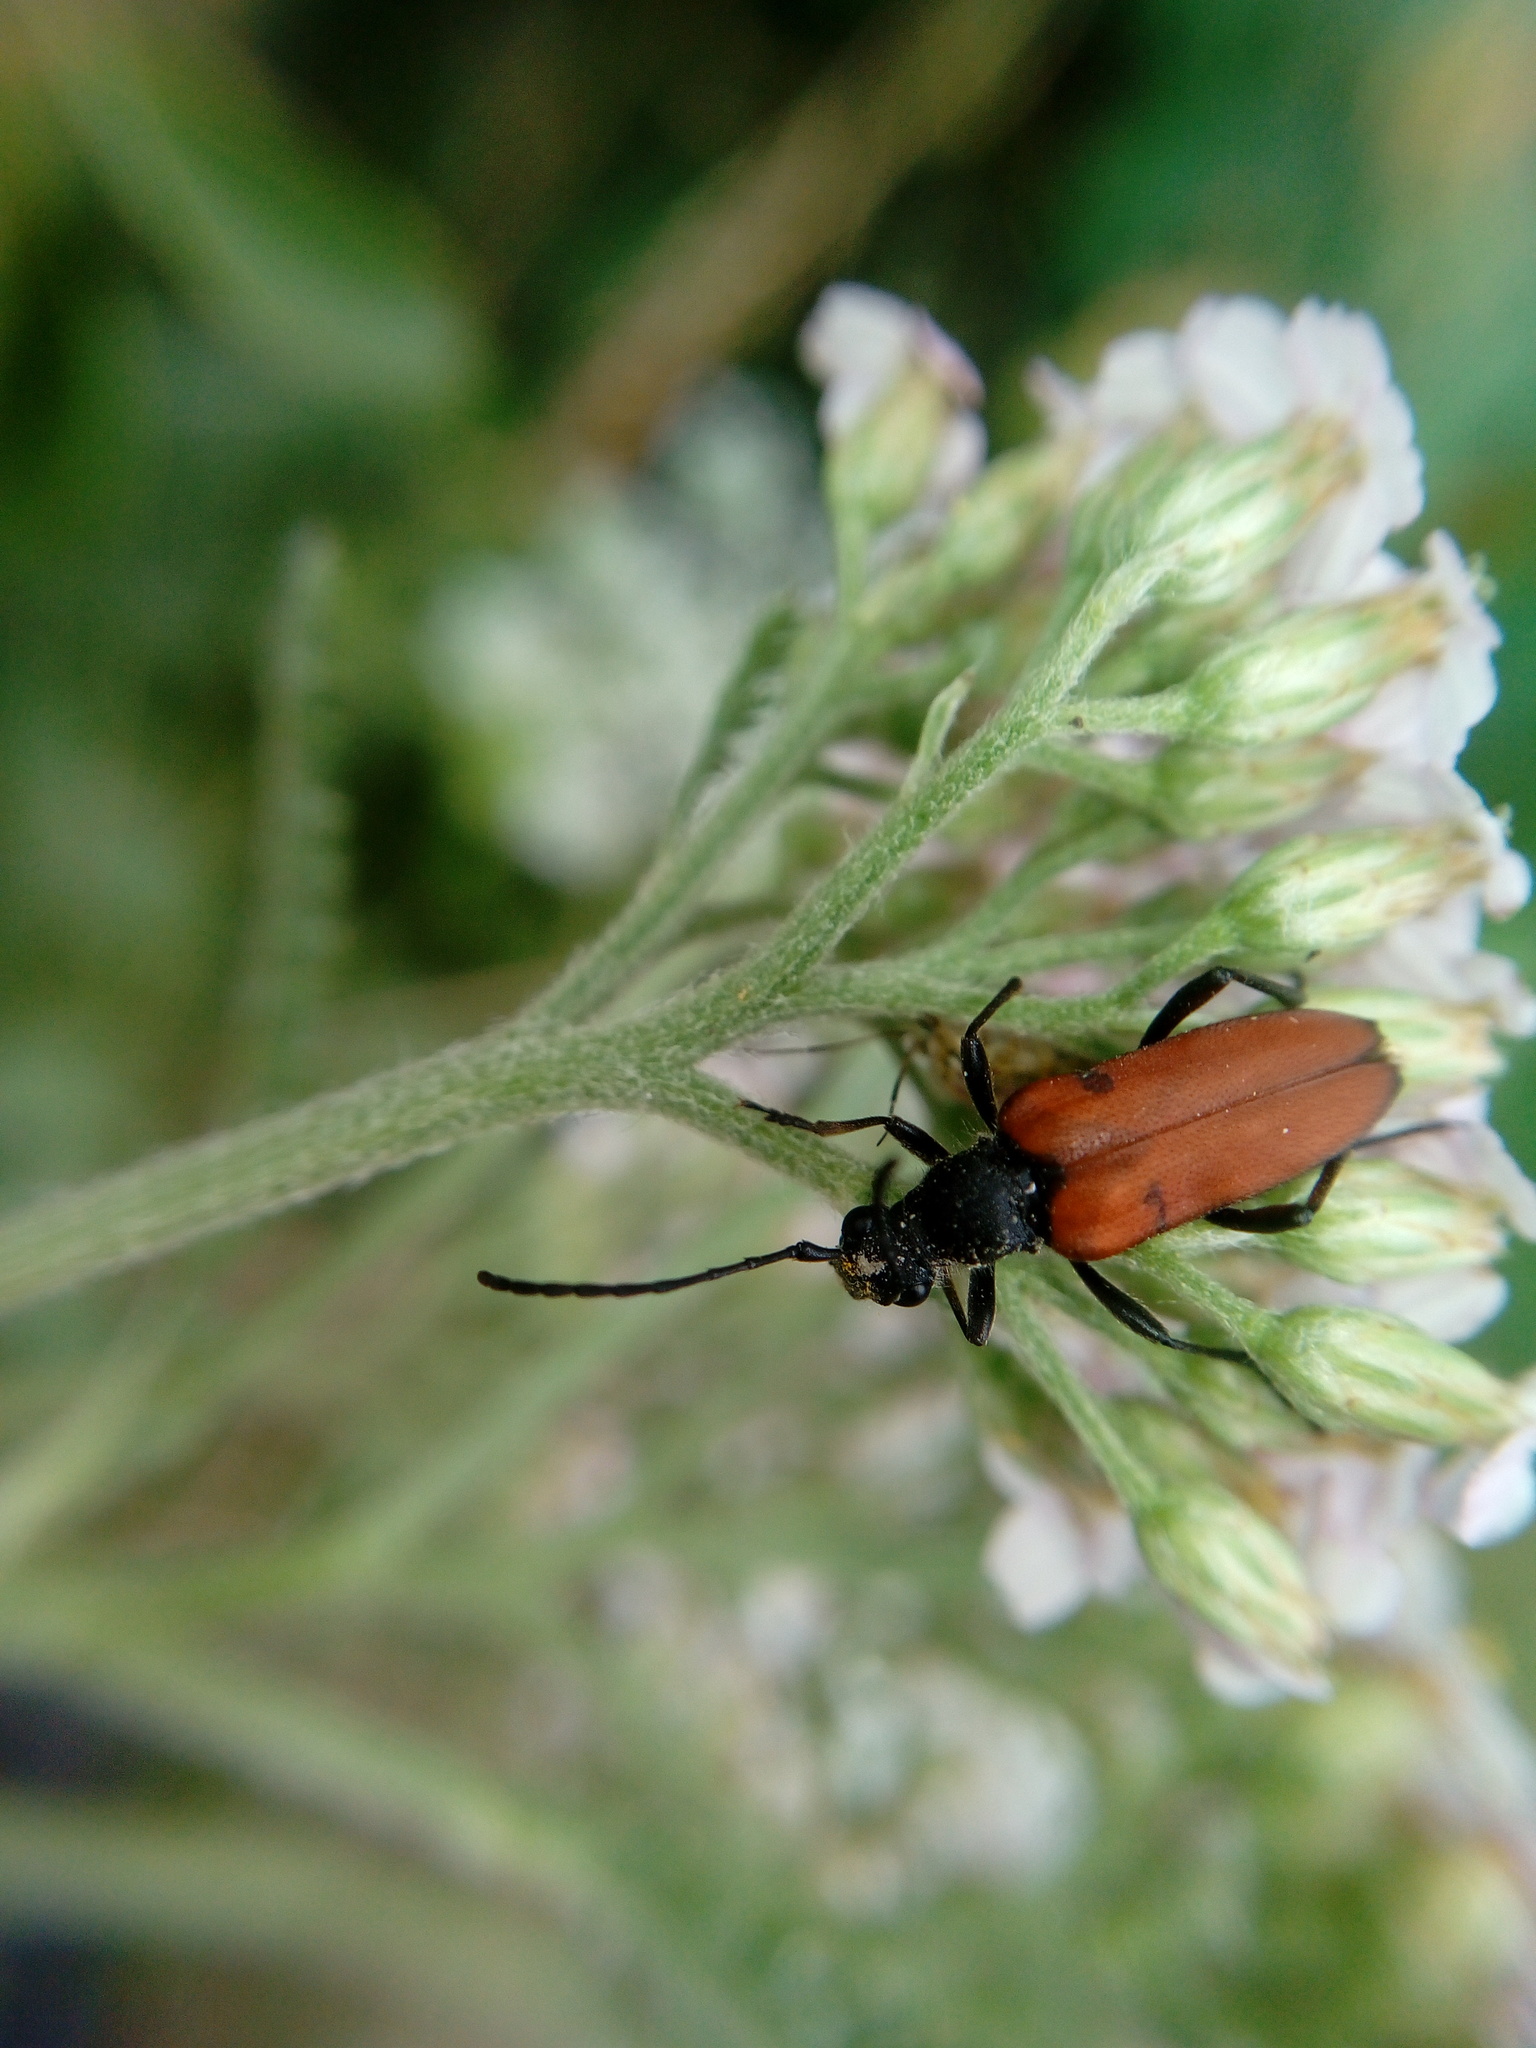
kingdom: Animalia
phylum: Arthropoda
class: Insecta
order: Coleoptera
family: Cerambycidae
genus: Anastrangalia
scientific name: Anastrangalia sanguinolenta
